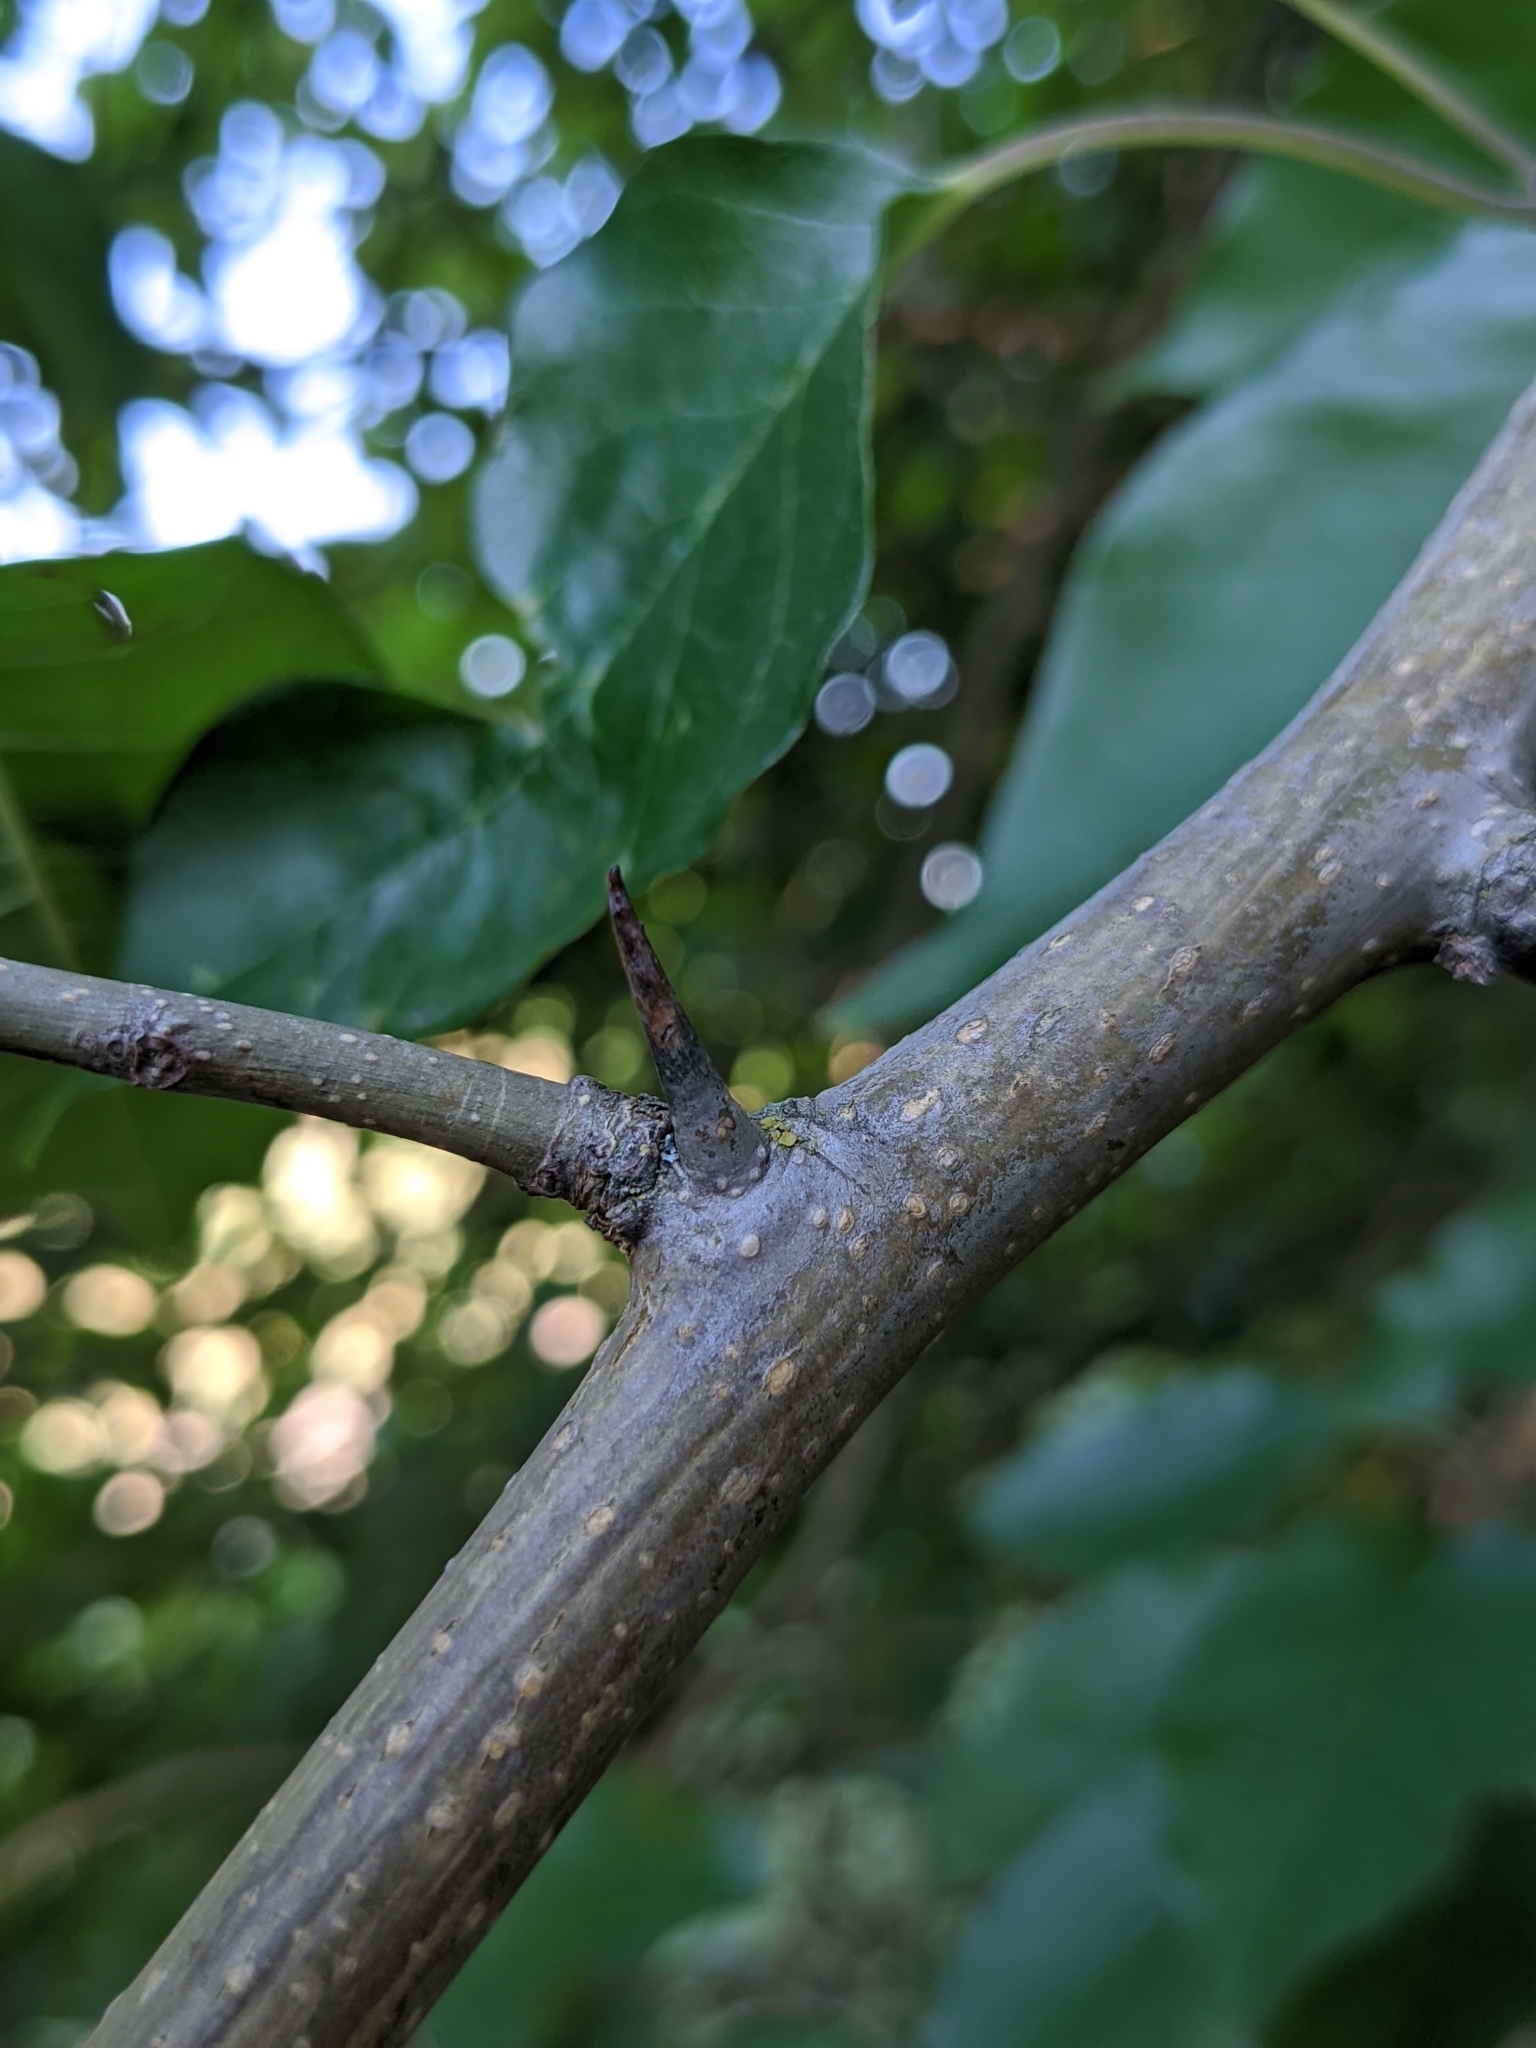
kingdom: Plantae
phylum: Tracheophyta
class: Magnoliopsida
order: Rosales
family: Moraceae
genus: Maclura
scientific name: Maclura pomifera
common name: Osage-orange
